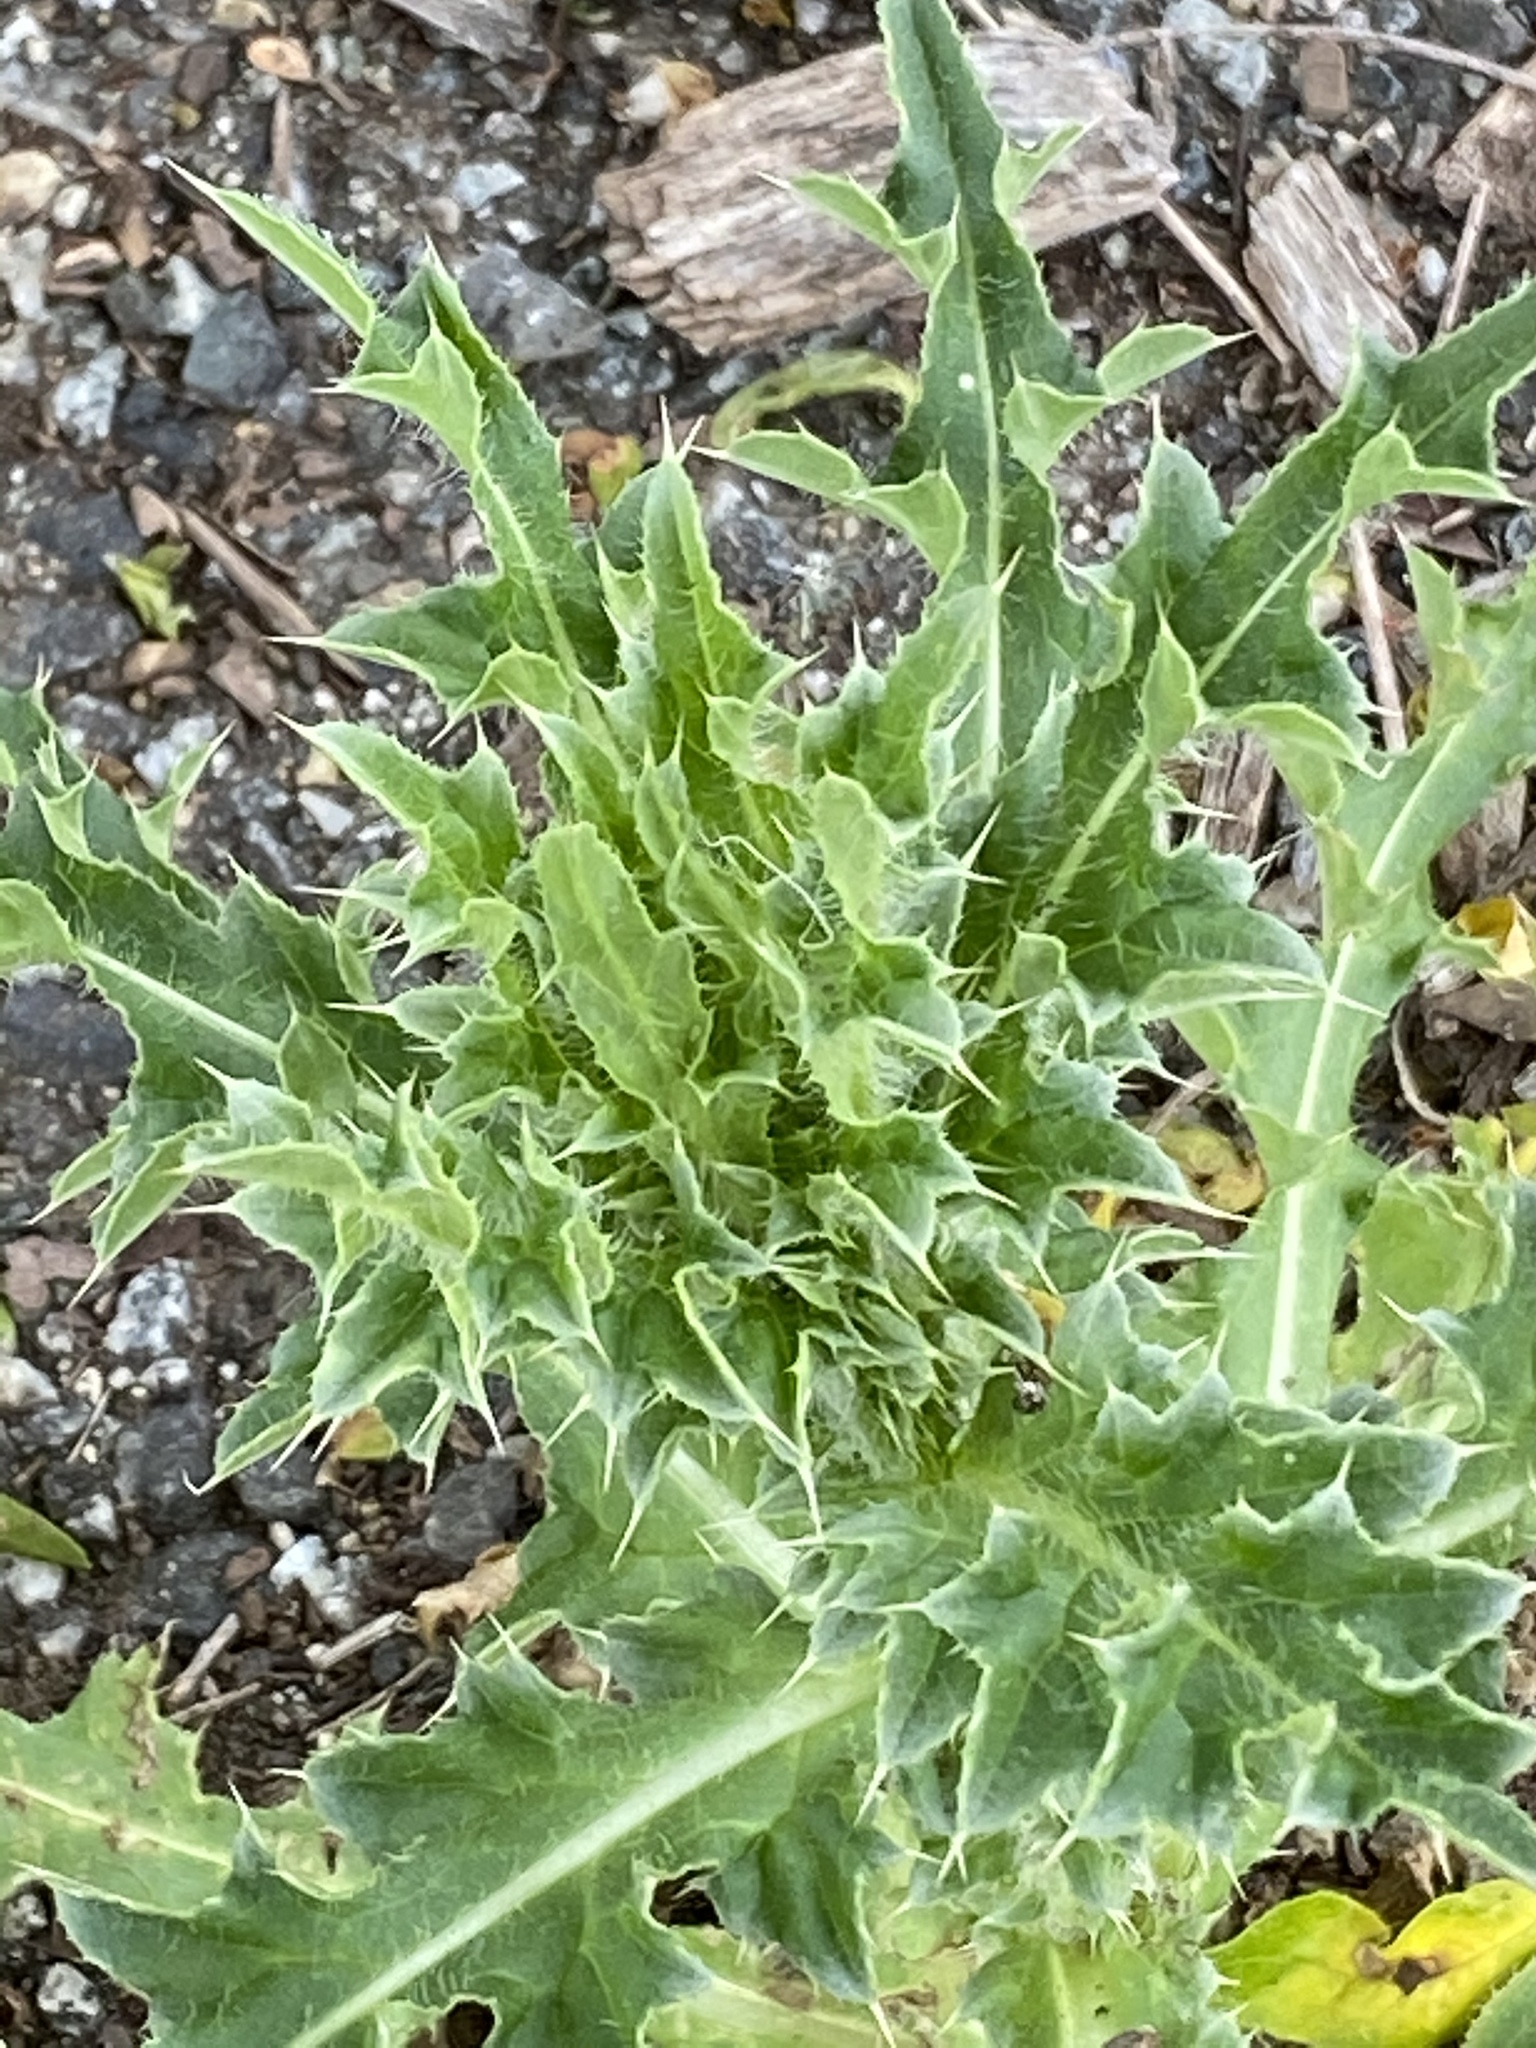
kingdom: Plantae
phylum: Tracheophyta
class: Magnoliopsida
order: Asterales
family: Asteraceae
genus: Carduus
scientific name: Carduus nutans
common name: Musk thistle
